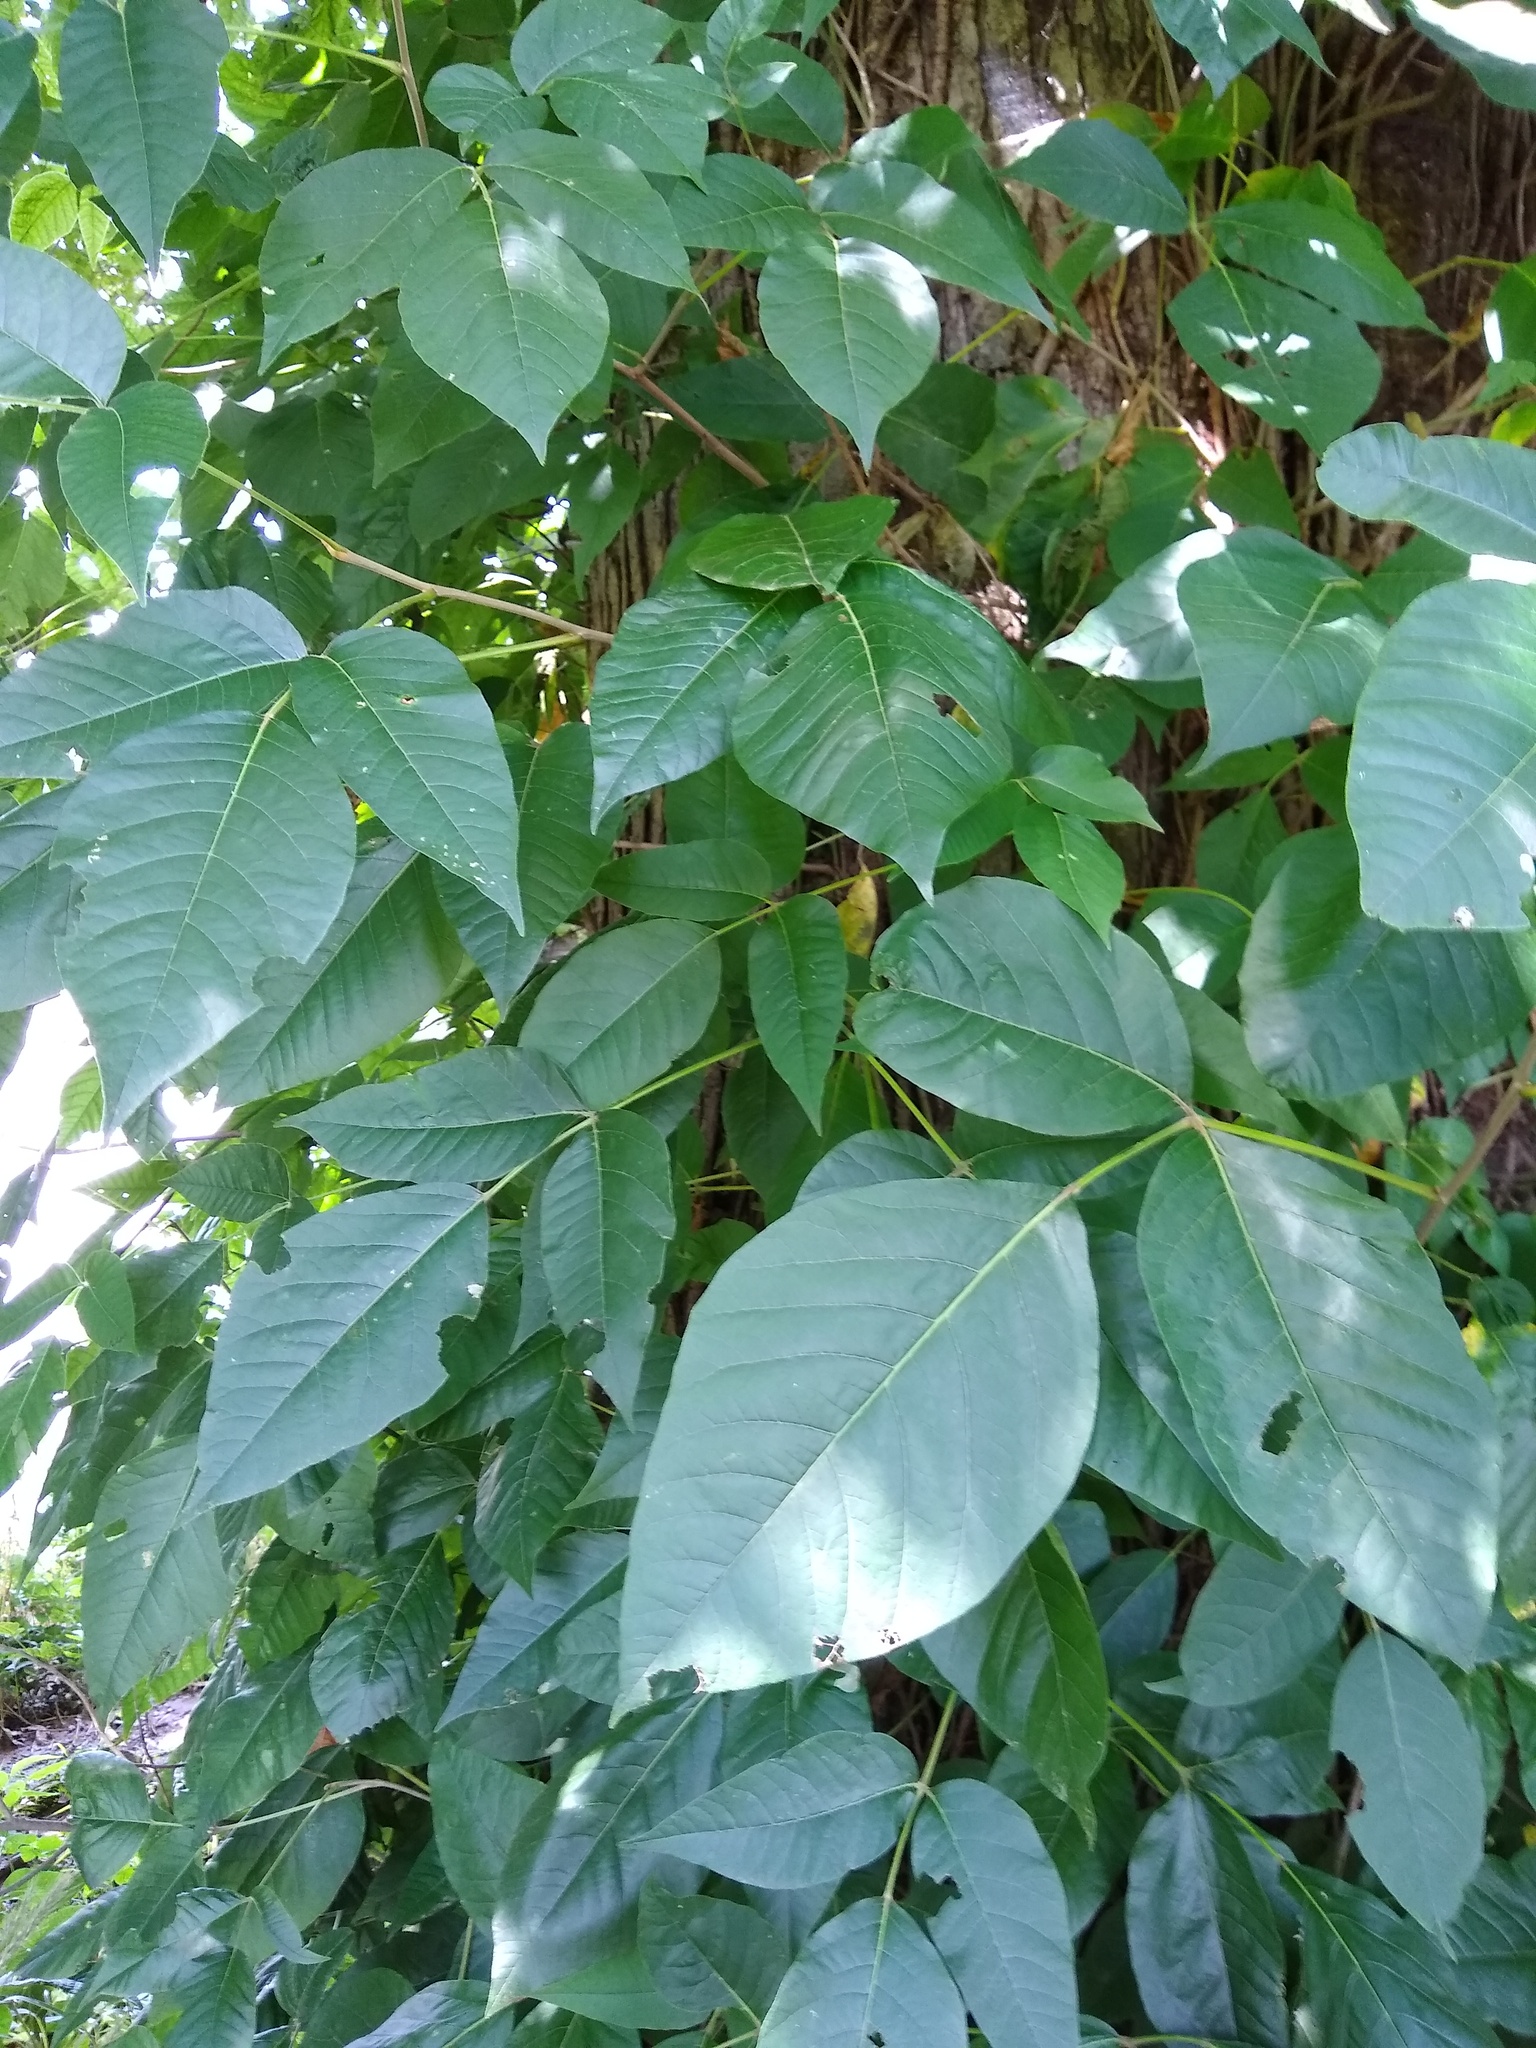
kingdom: Plantae
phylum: Tracheophyta
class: Magnoliopsida
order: Sapindales
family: Anacardiaceae
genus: Toxicodendron
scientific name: Toxicodendron radicans
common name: Poison ivy
